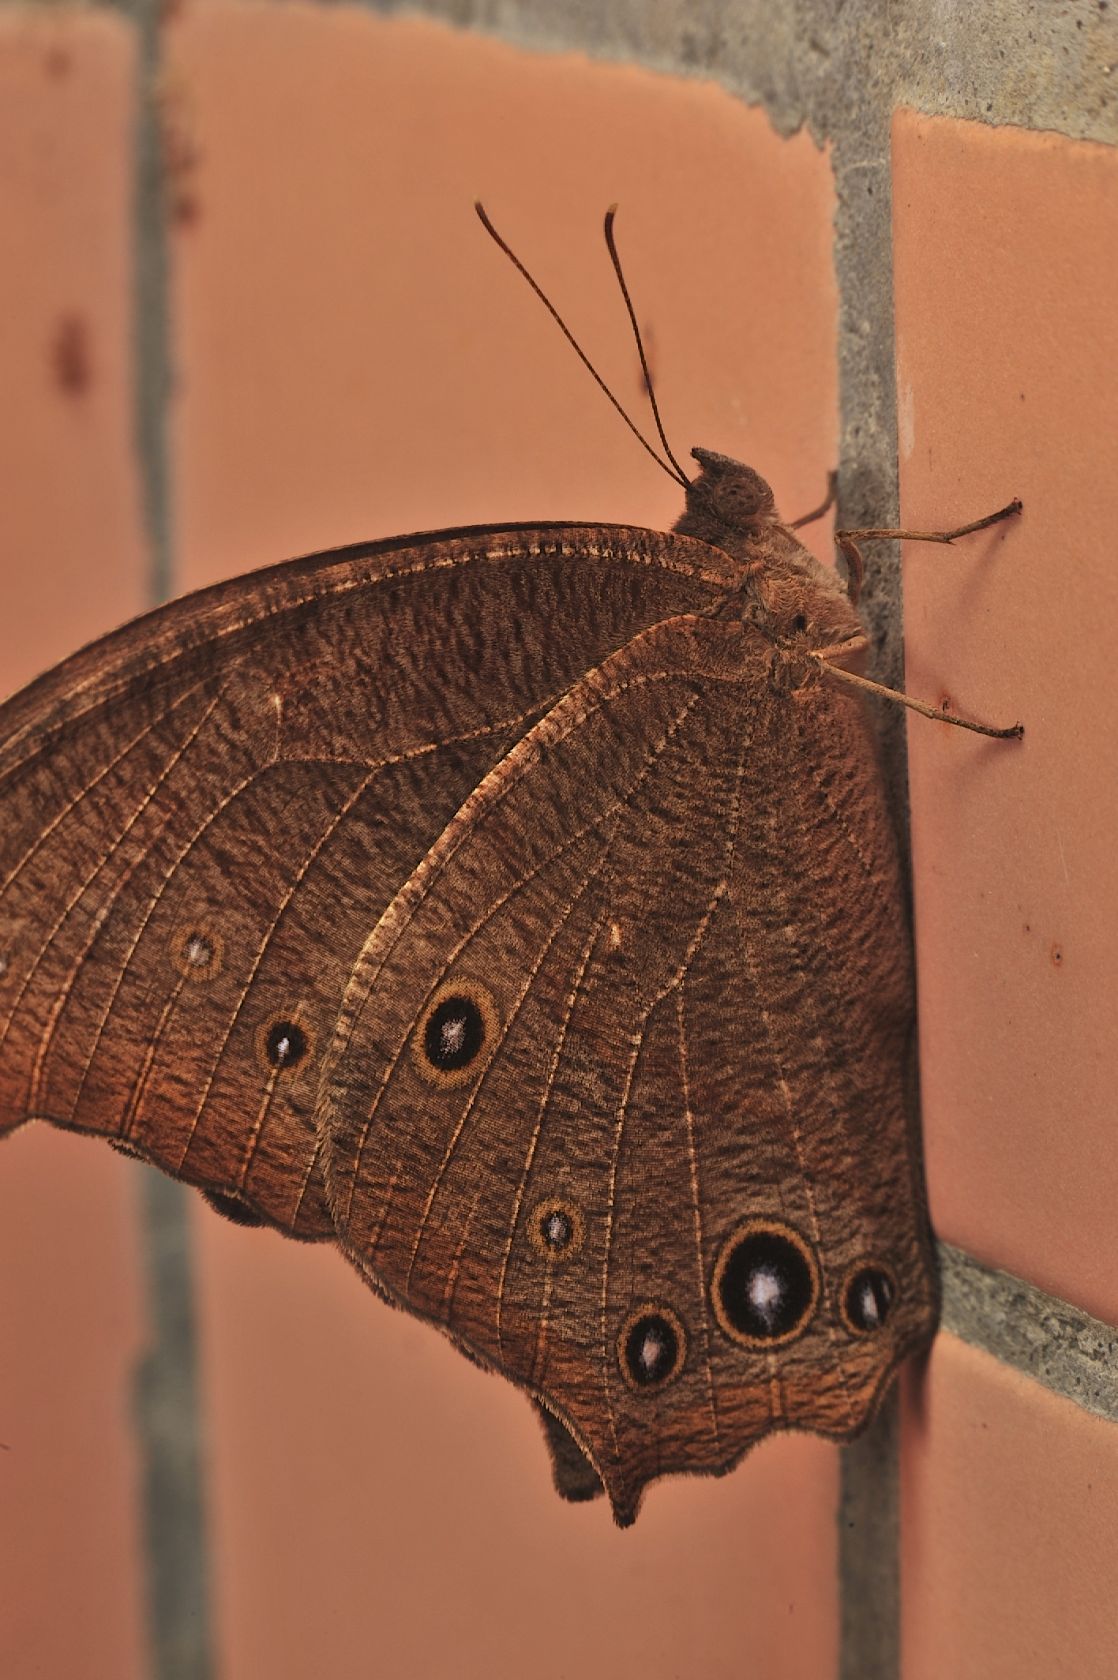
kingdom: Animalia
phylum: Arthropoda
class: Insecta
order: Lepidoptera
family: Nymphalidae
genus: Melanitis
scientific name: Melanitis leda
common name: Twilight brown
